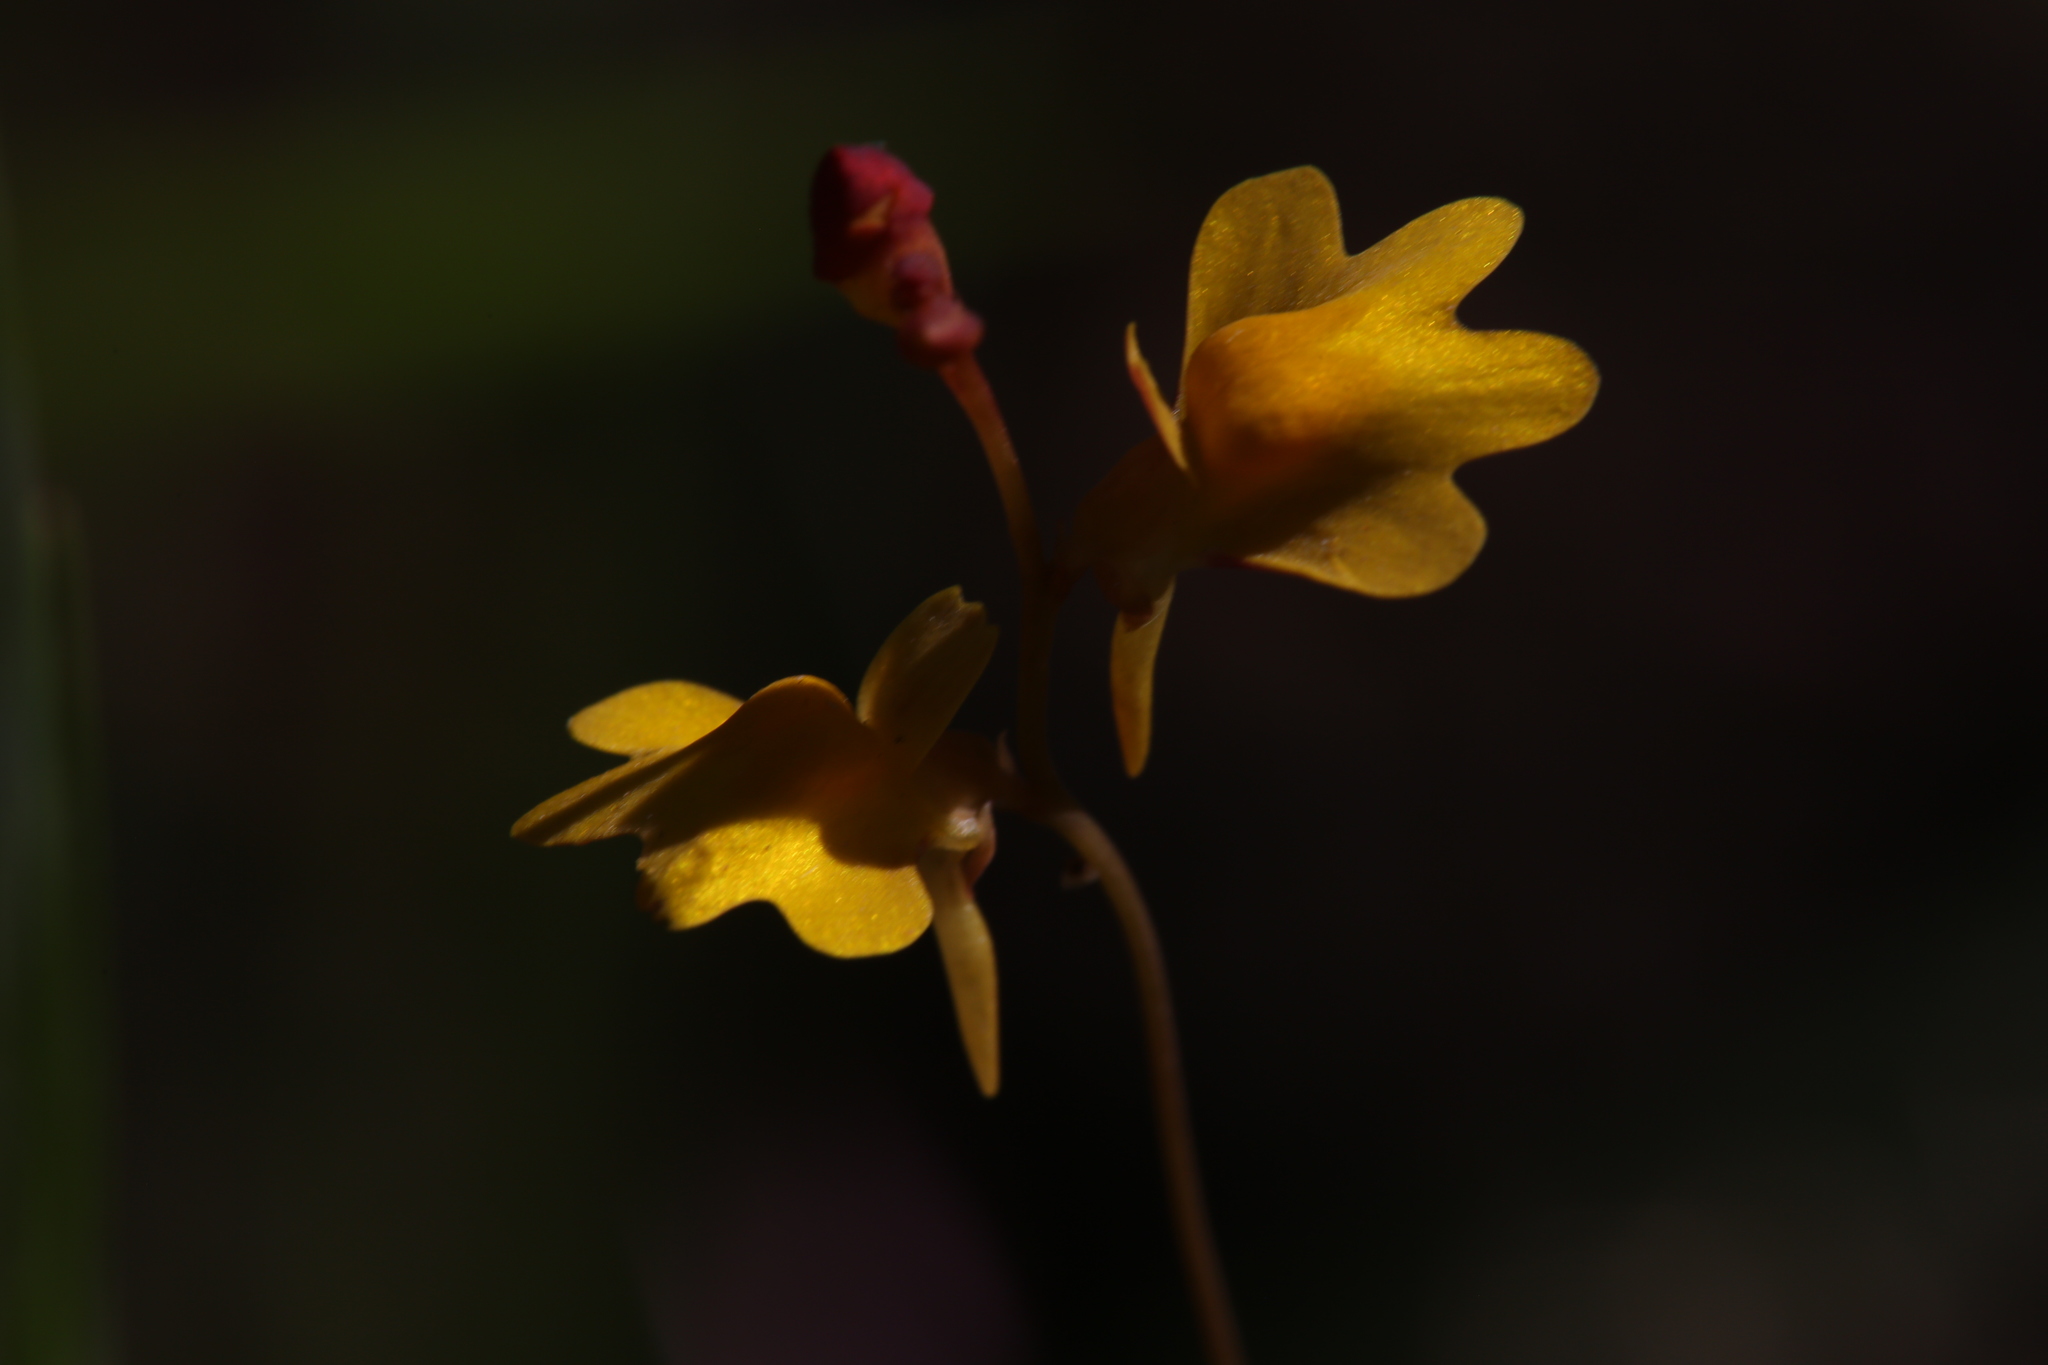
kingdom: Plantae
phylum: Tracheophyta
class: Magnoliopsida
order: Lamiales
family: Lentibulariaceae
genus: Utricularia
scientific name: Utricularia chrysantha
